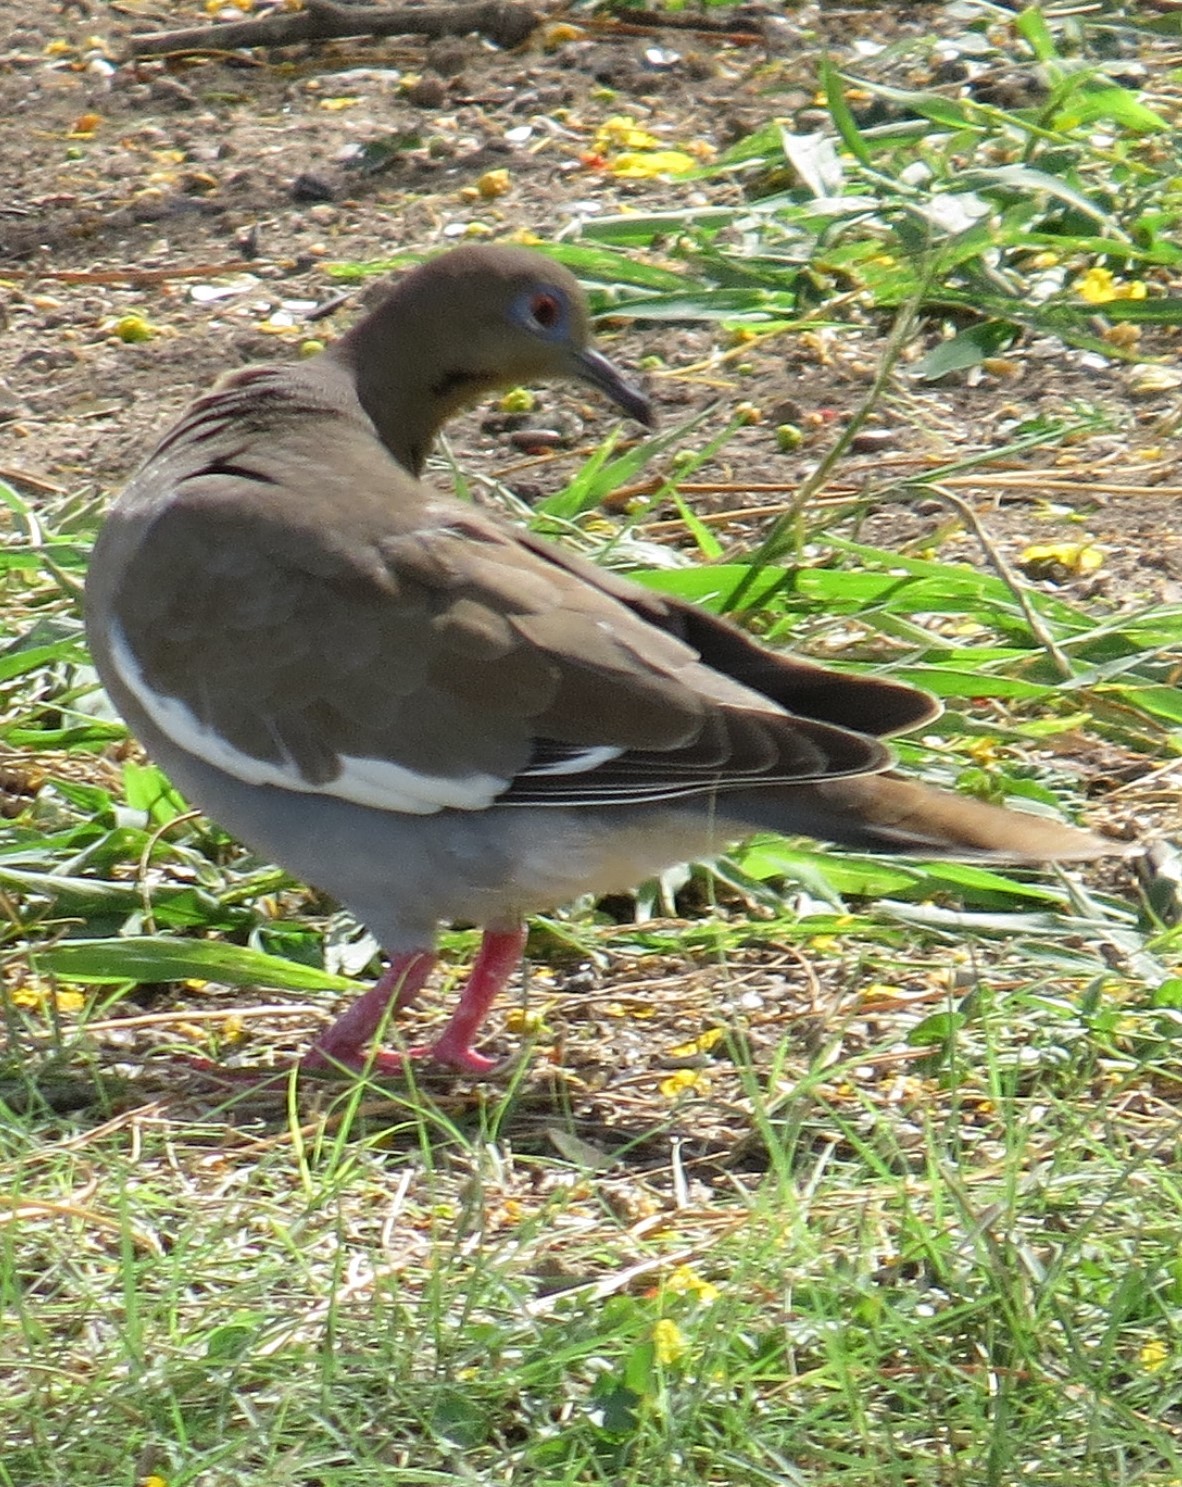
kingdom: Animalia
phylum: Chordata
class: Aves
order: Columbiformes
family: Columbidae
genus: Zenaida
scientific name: Zenaida asiatica
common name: White-winged dove
